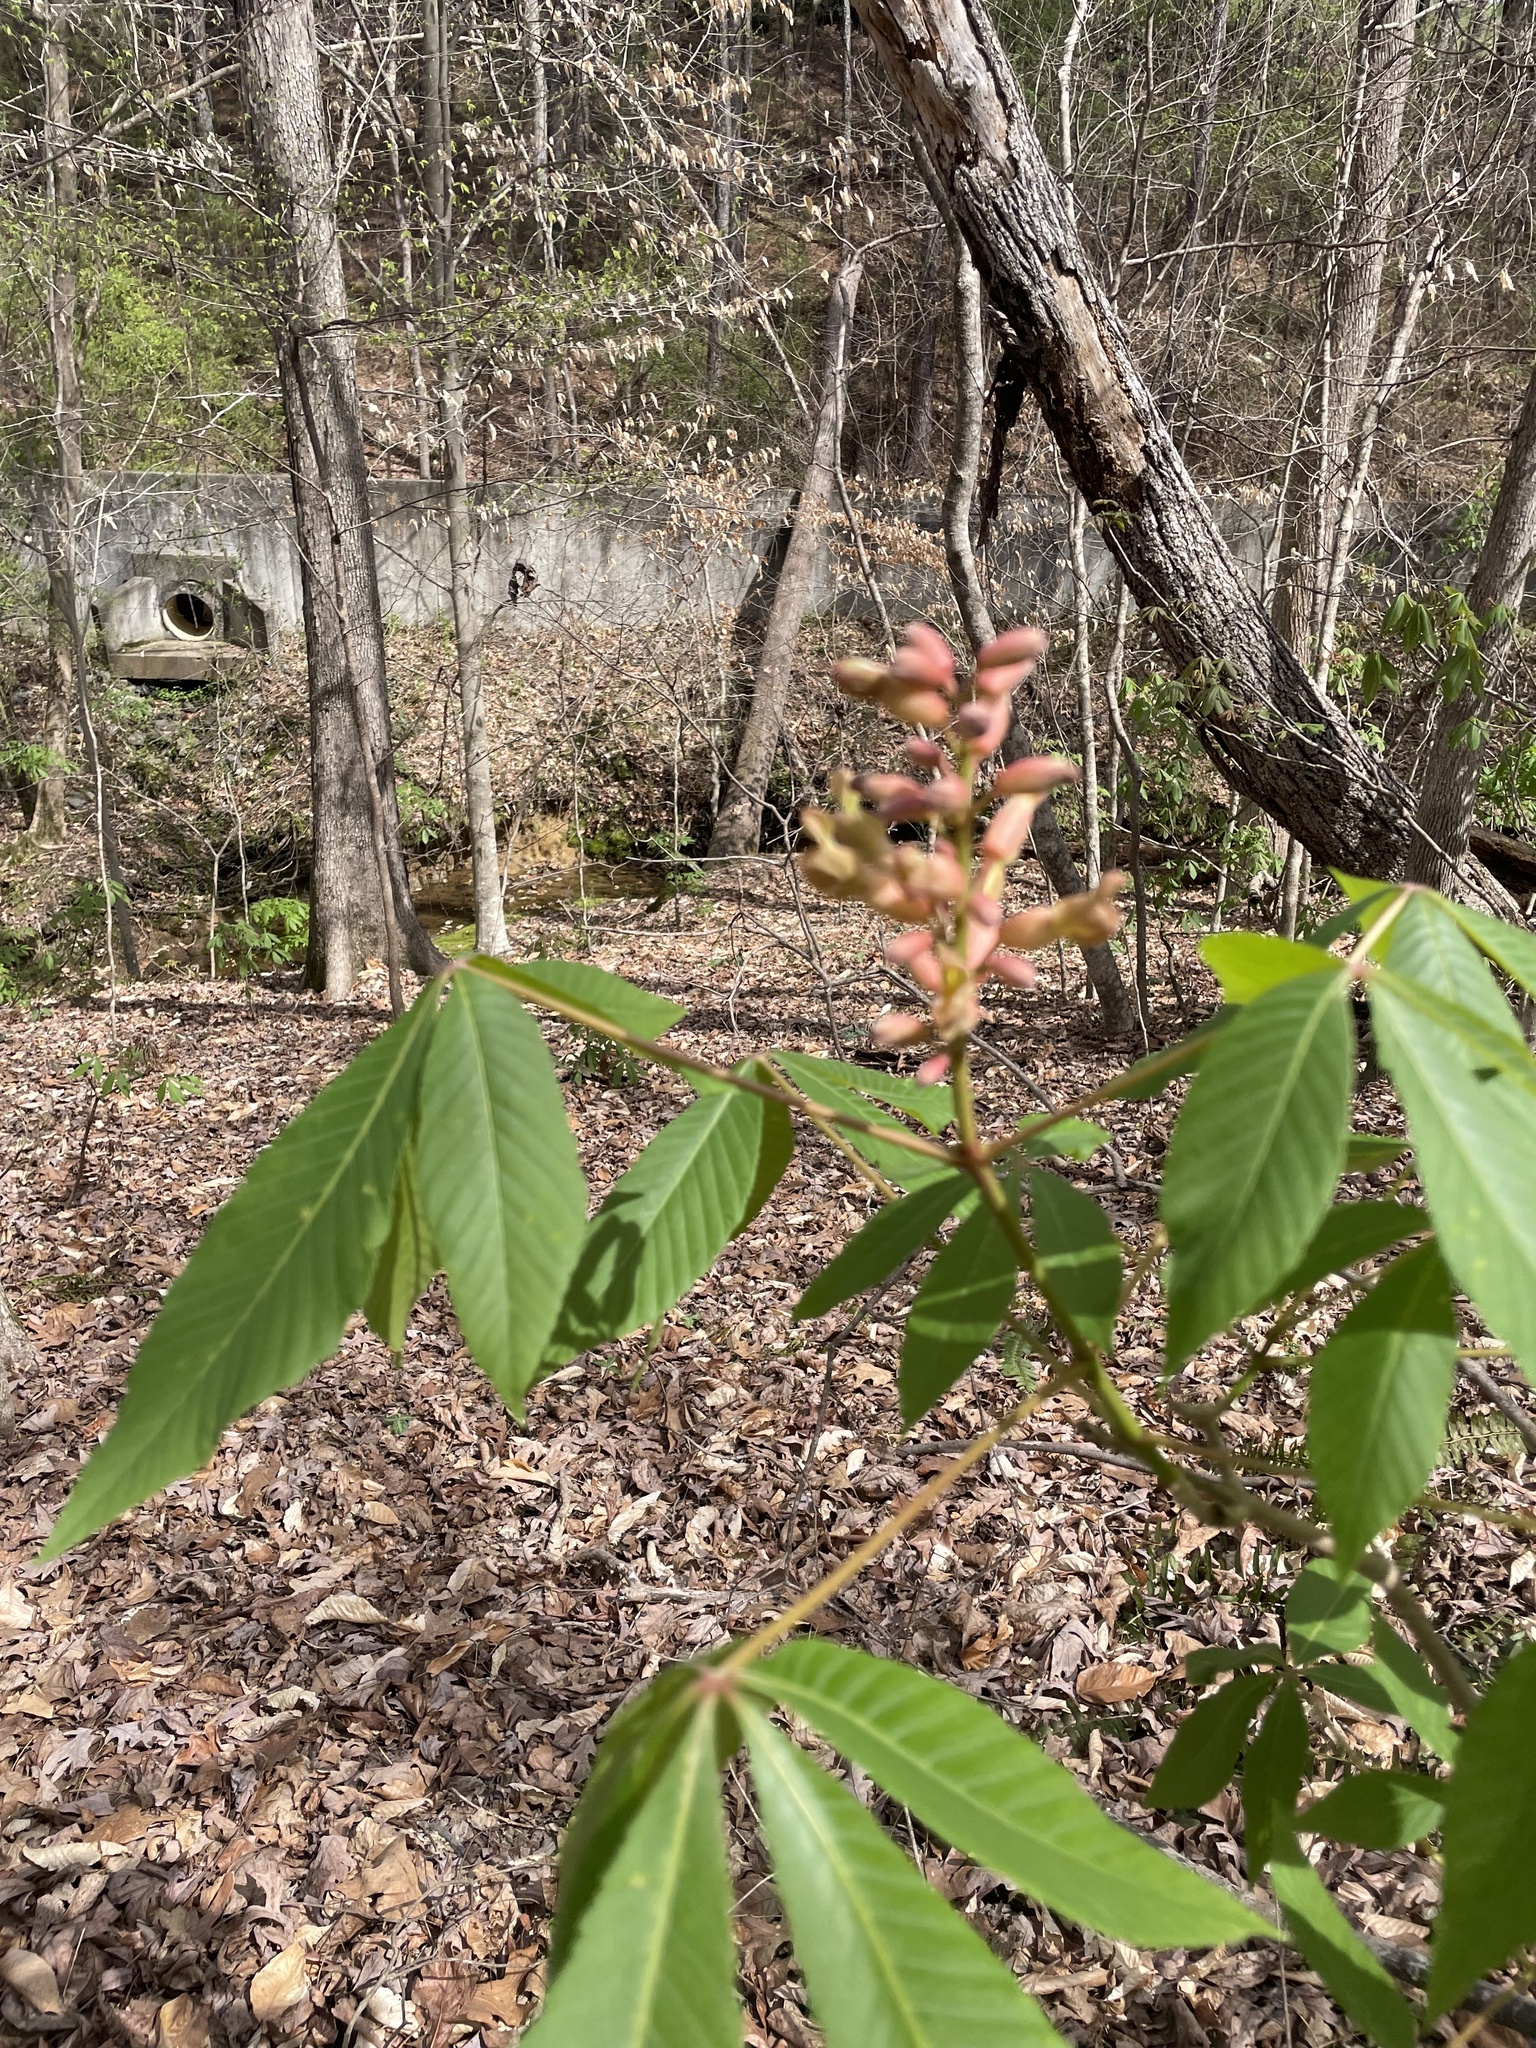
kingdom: Plantae
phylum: Tracheophyta
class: Magnoliopsida
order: Sapindales
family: Sapindaceae
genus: Aesculus
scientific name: Aesculus mutabilis
